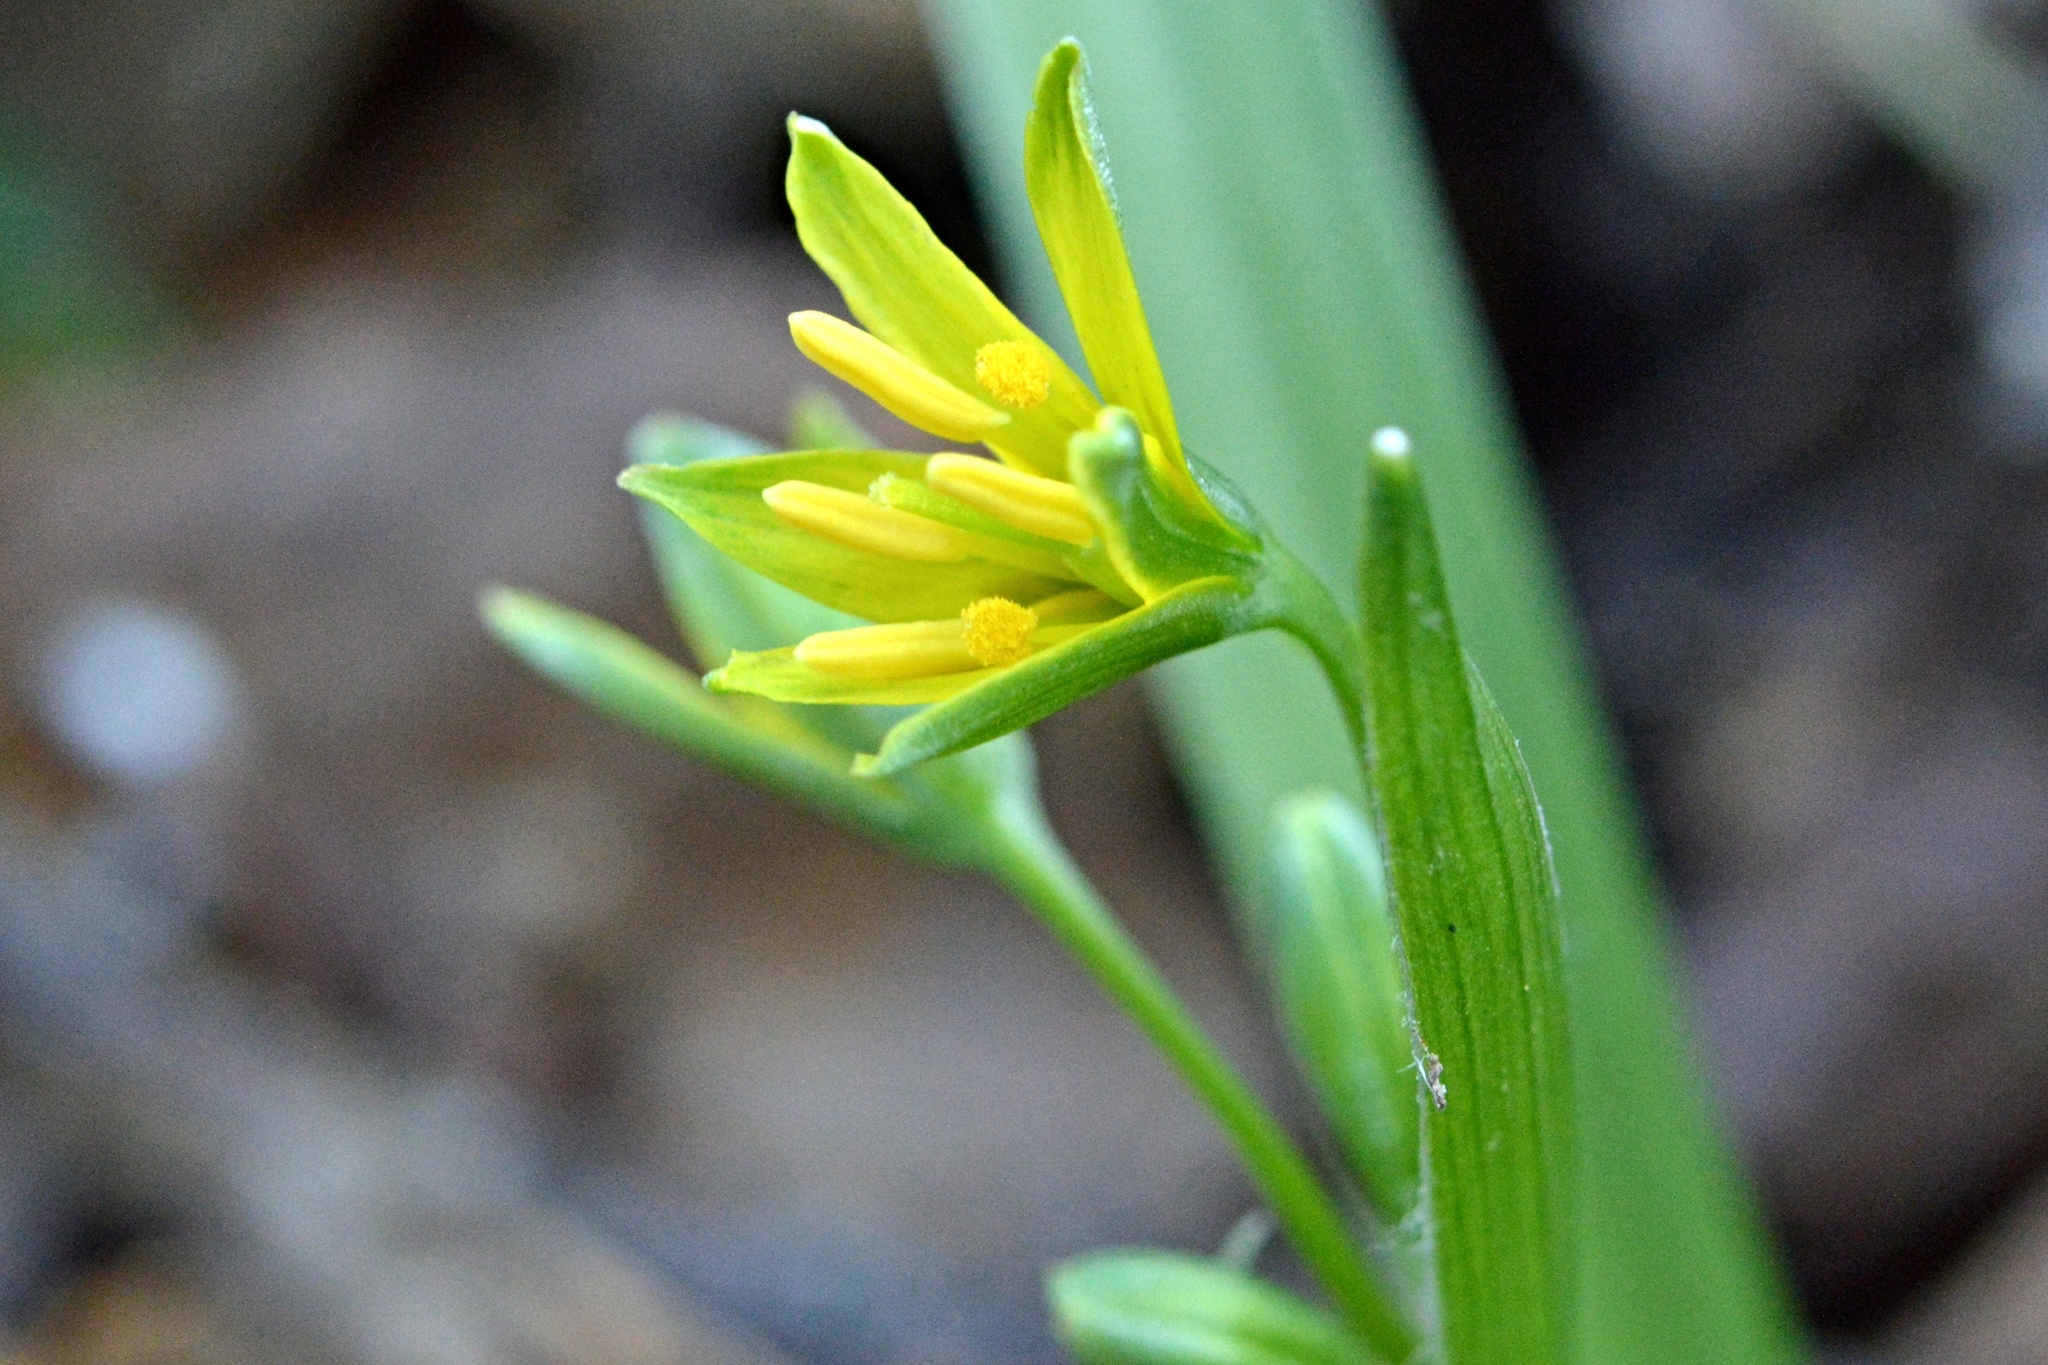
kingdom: Plantae
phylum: Tracheophyta
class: Liliopsida
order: Liliales
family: Liliaceae
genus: Gagea
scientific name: Gagea lutea
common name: Yellow star-of-bethlehem
